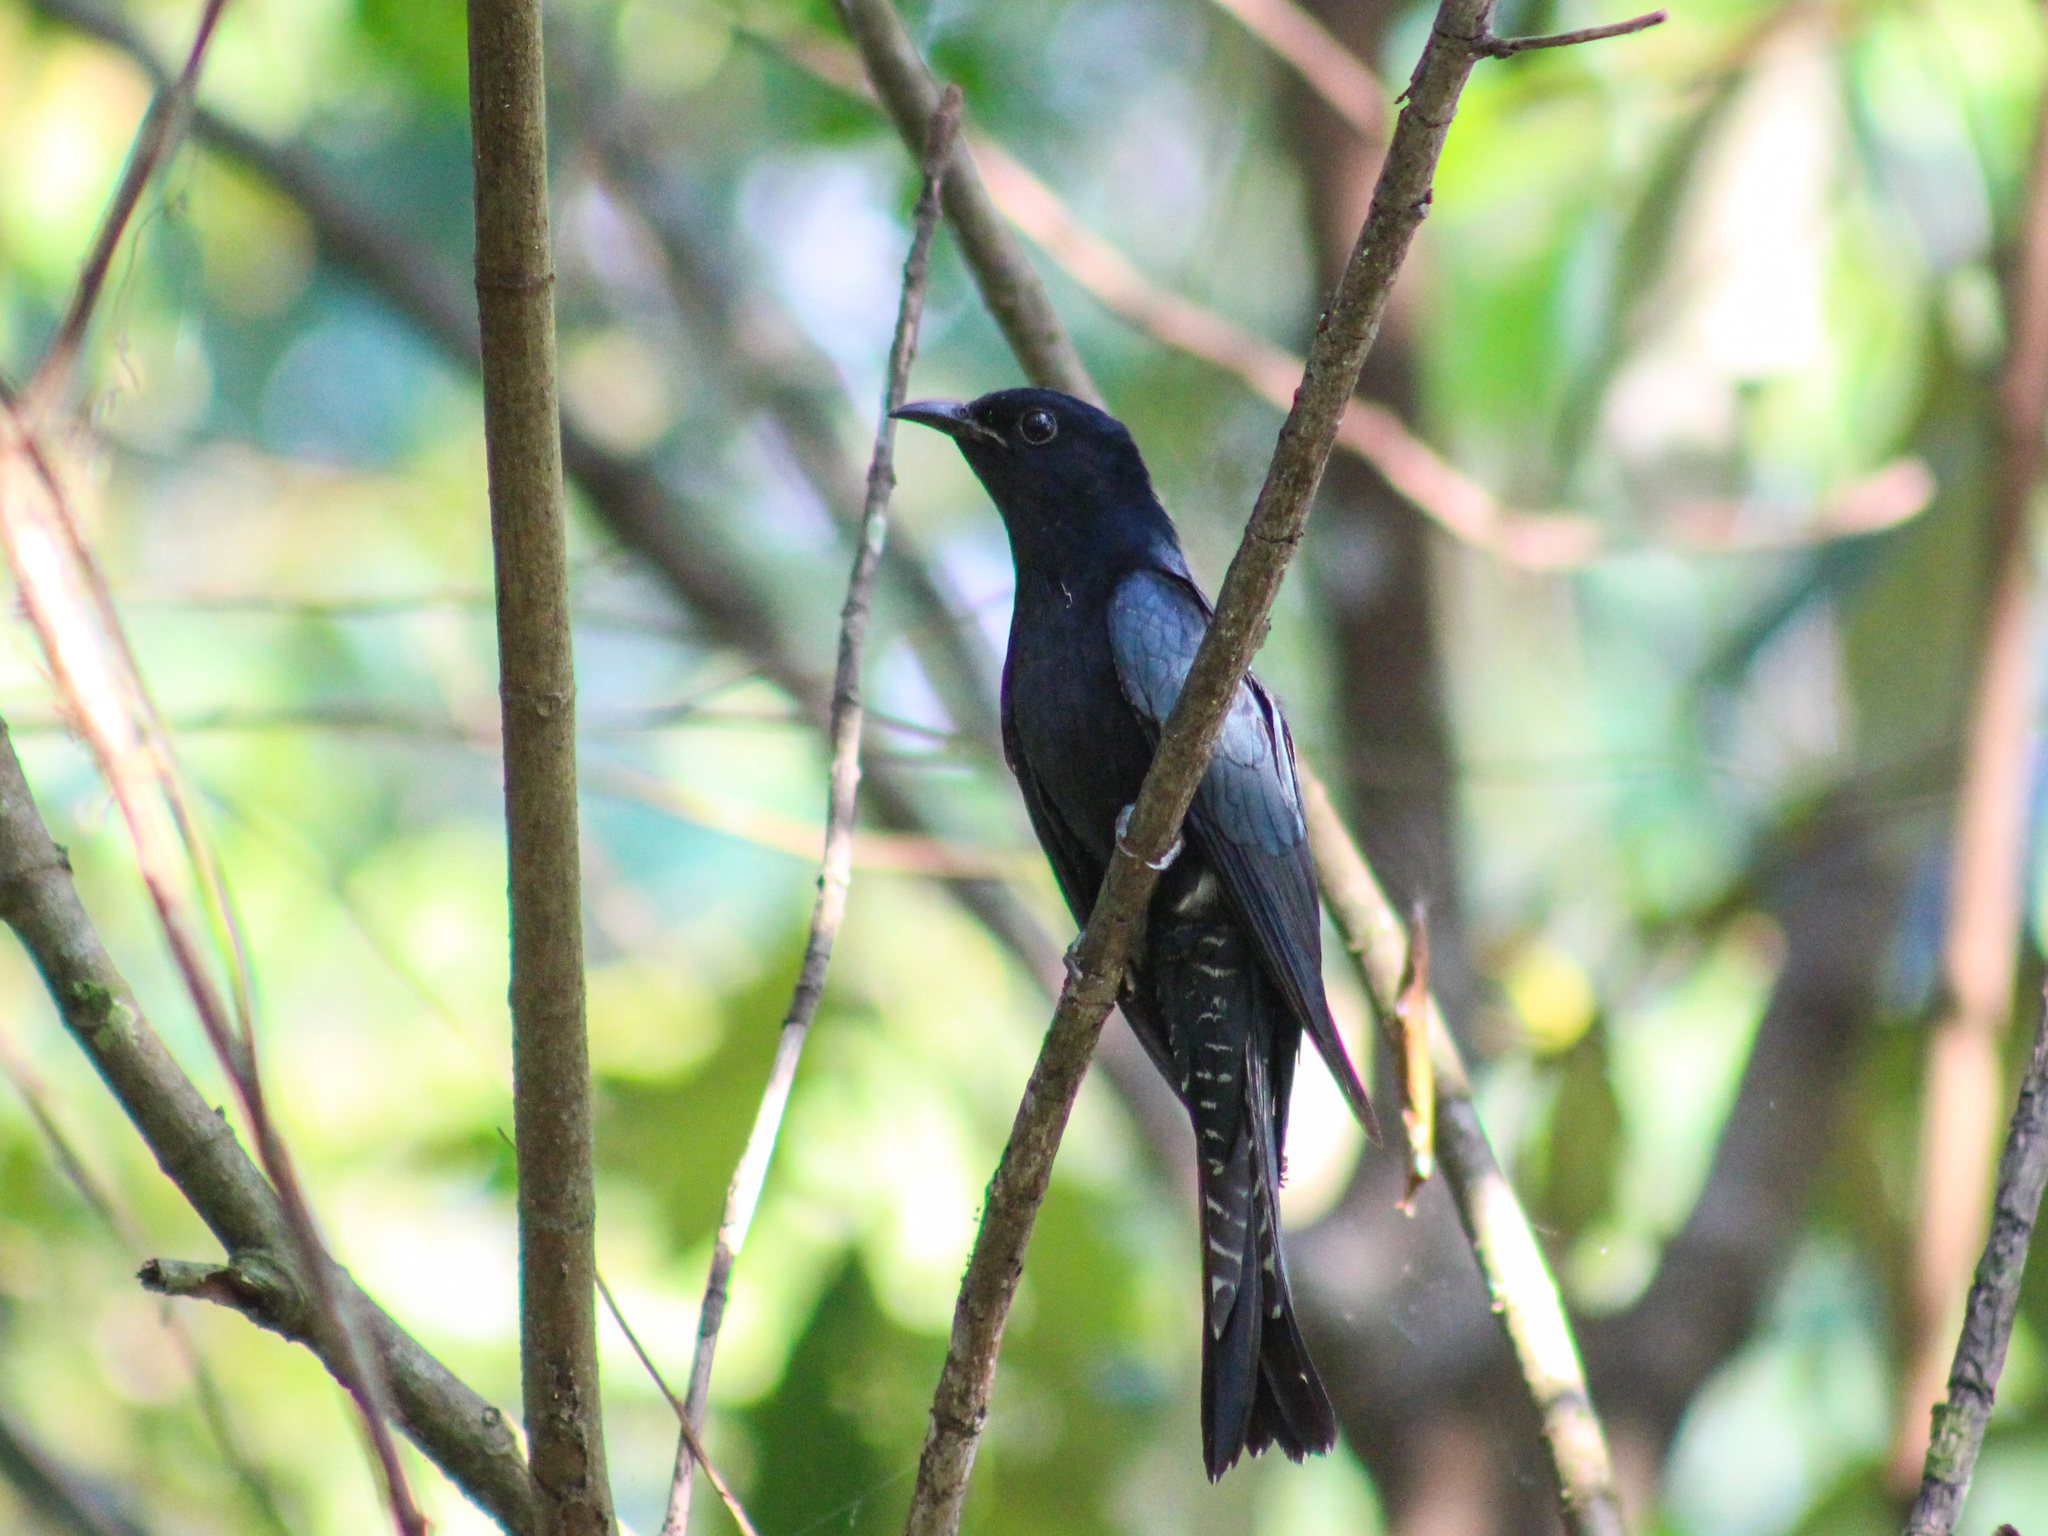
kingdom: Animalia
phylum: Chordata
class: Aves
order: Cuculiformes
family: Cuculidae
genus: Surniculus
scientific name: Surniculus lugubris
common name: Square-tailed drongo-cuckoo
